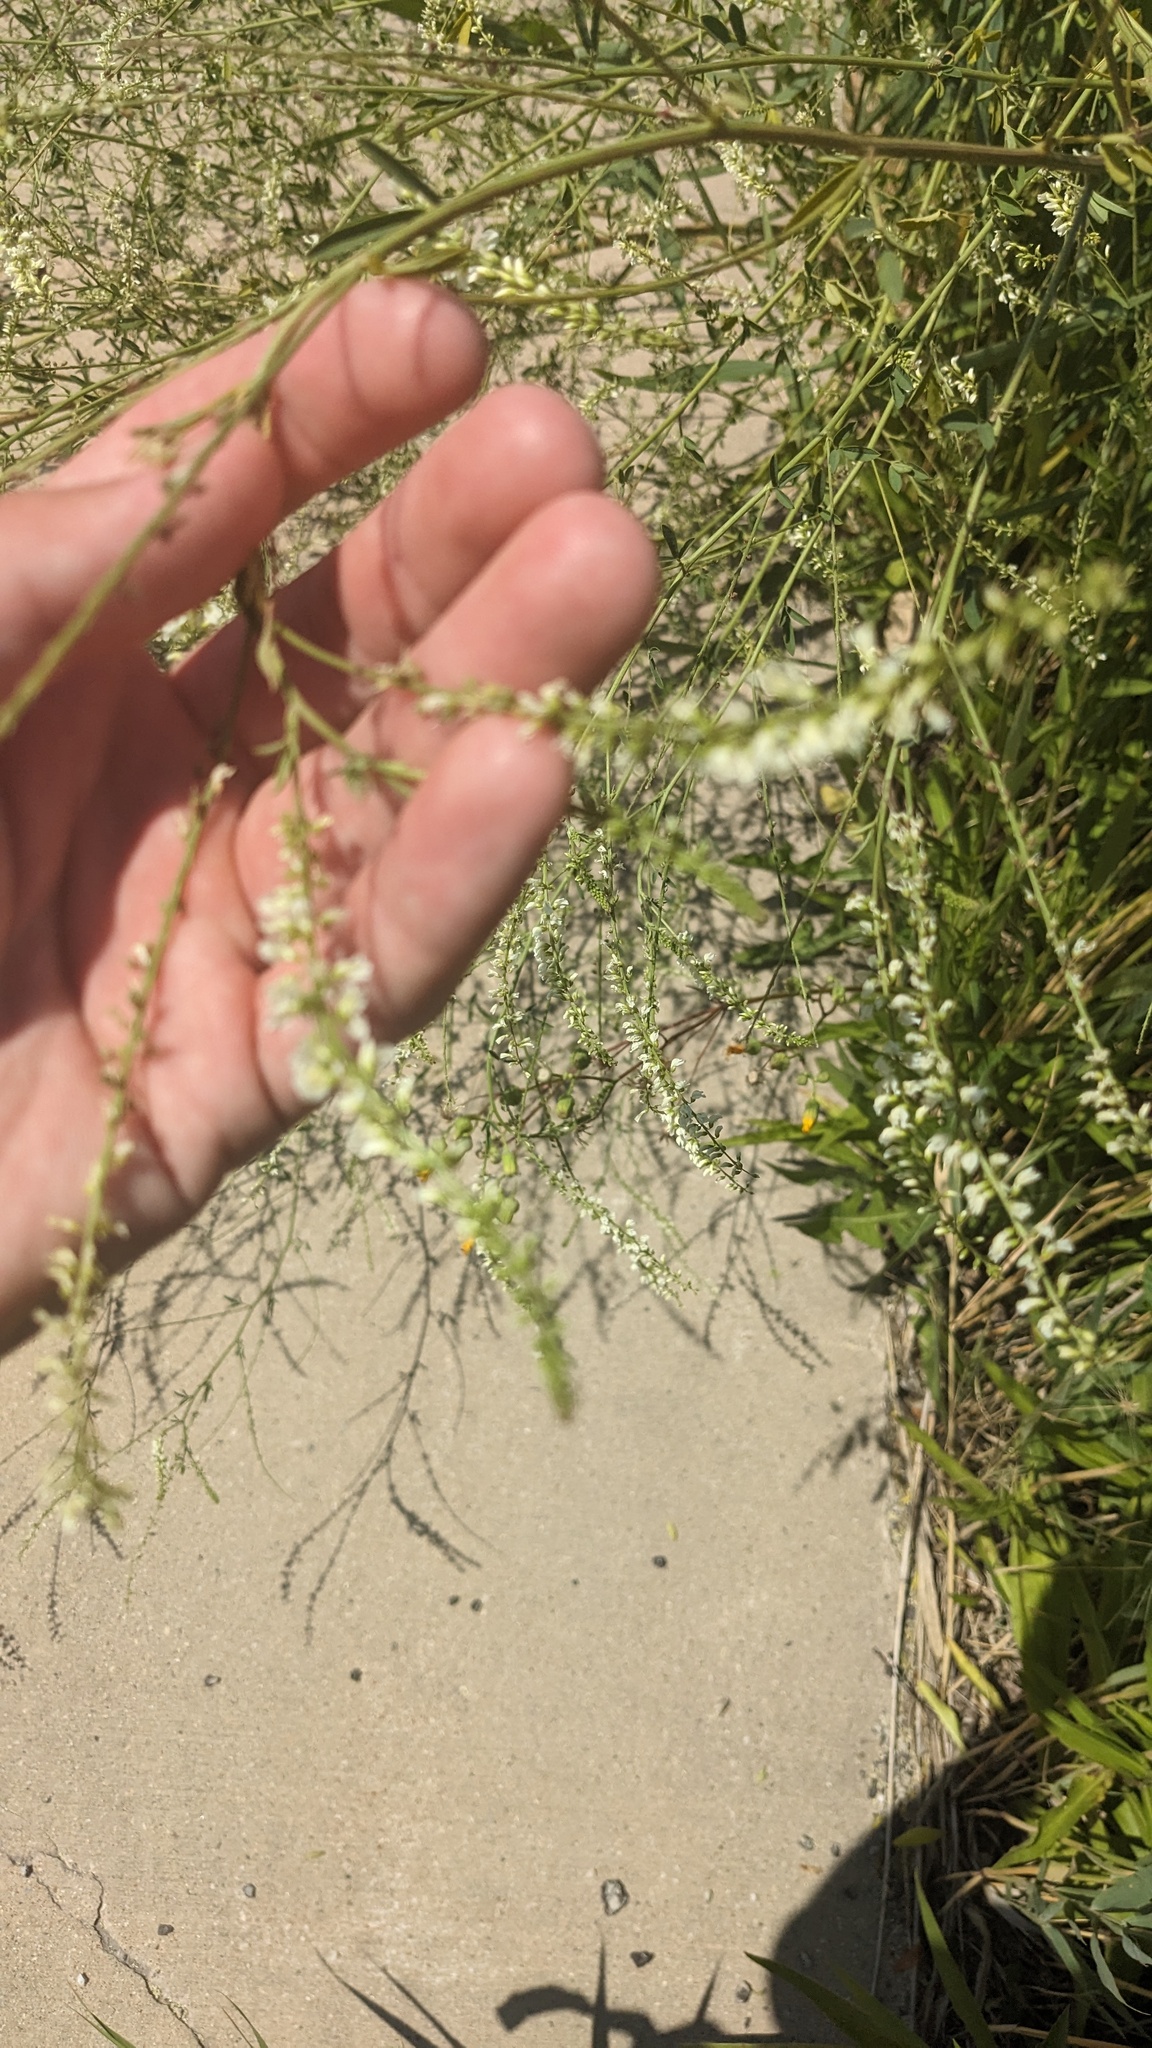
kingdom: Plantae
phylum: Tracheophyta
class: Magnoliopsida
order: Fabales
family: Fabaceae
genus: Melilotus
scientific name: Melilotus albus
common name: White melilot
